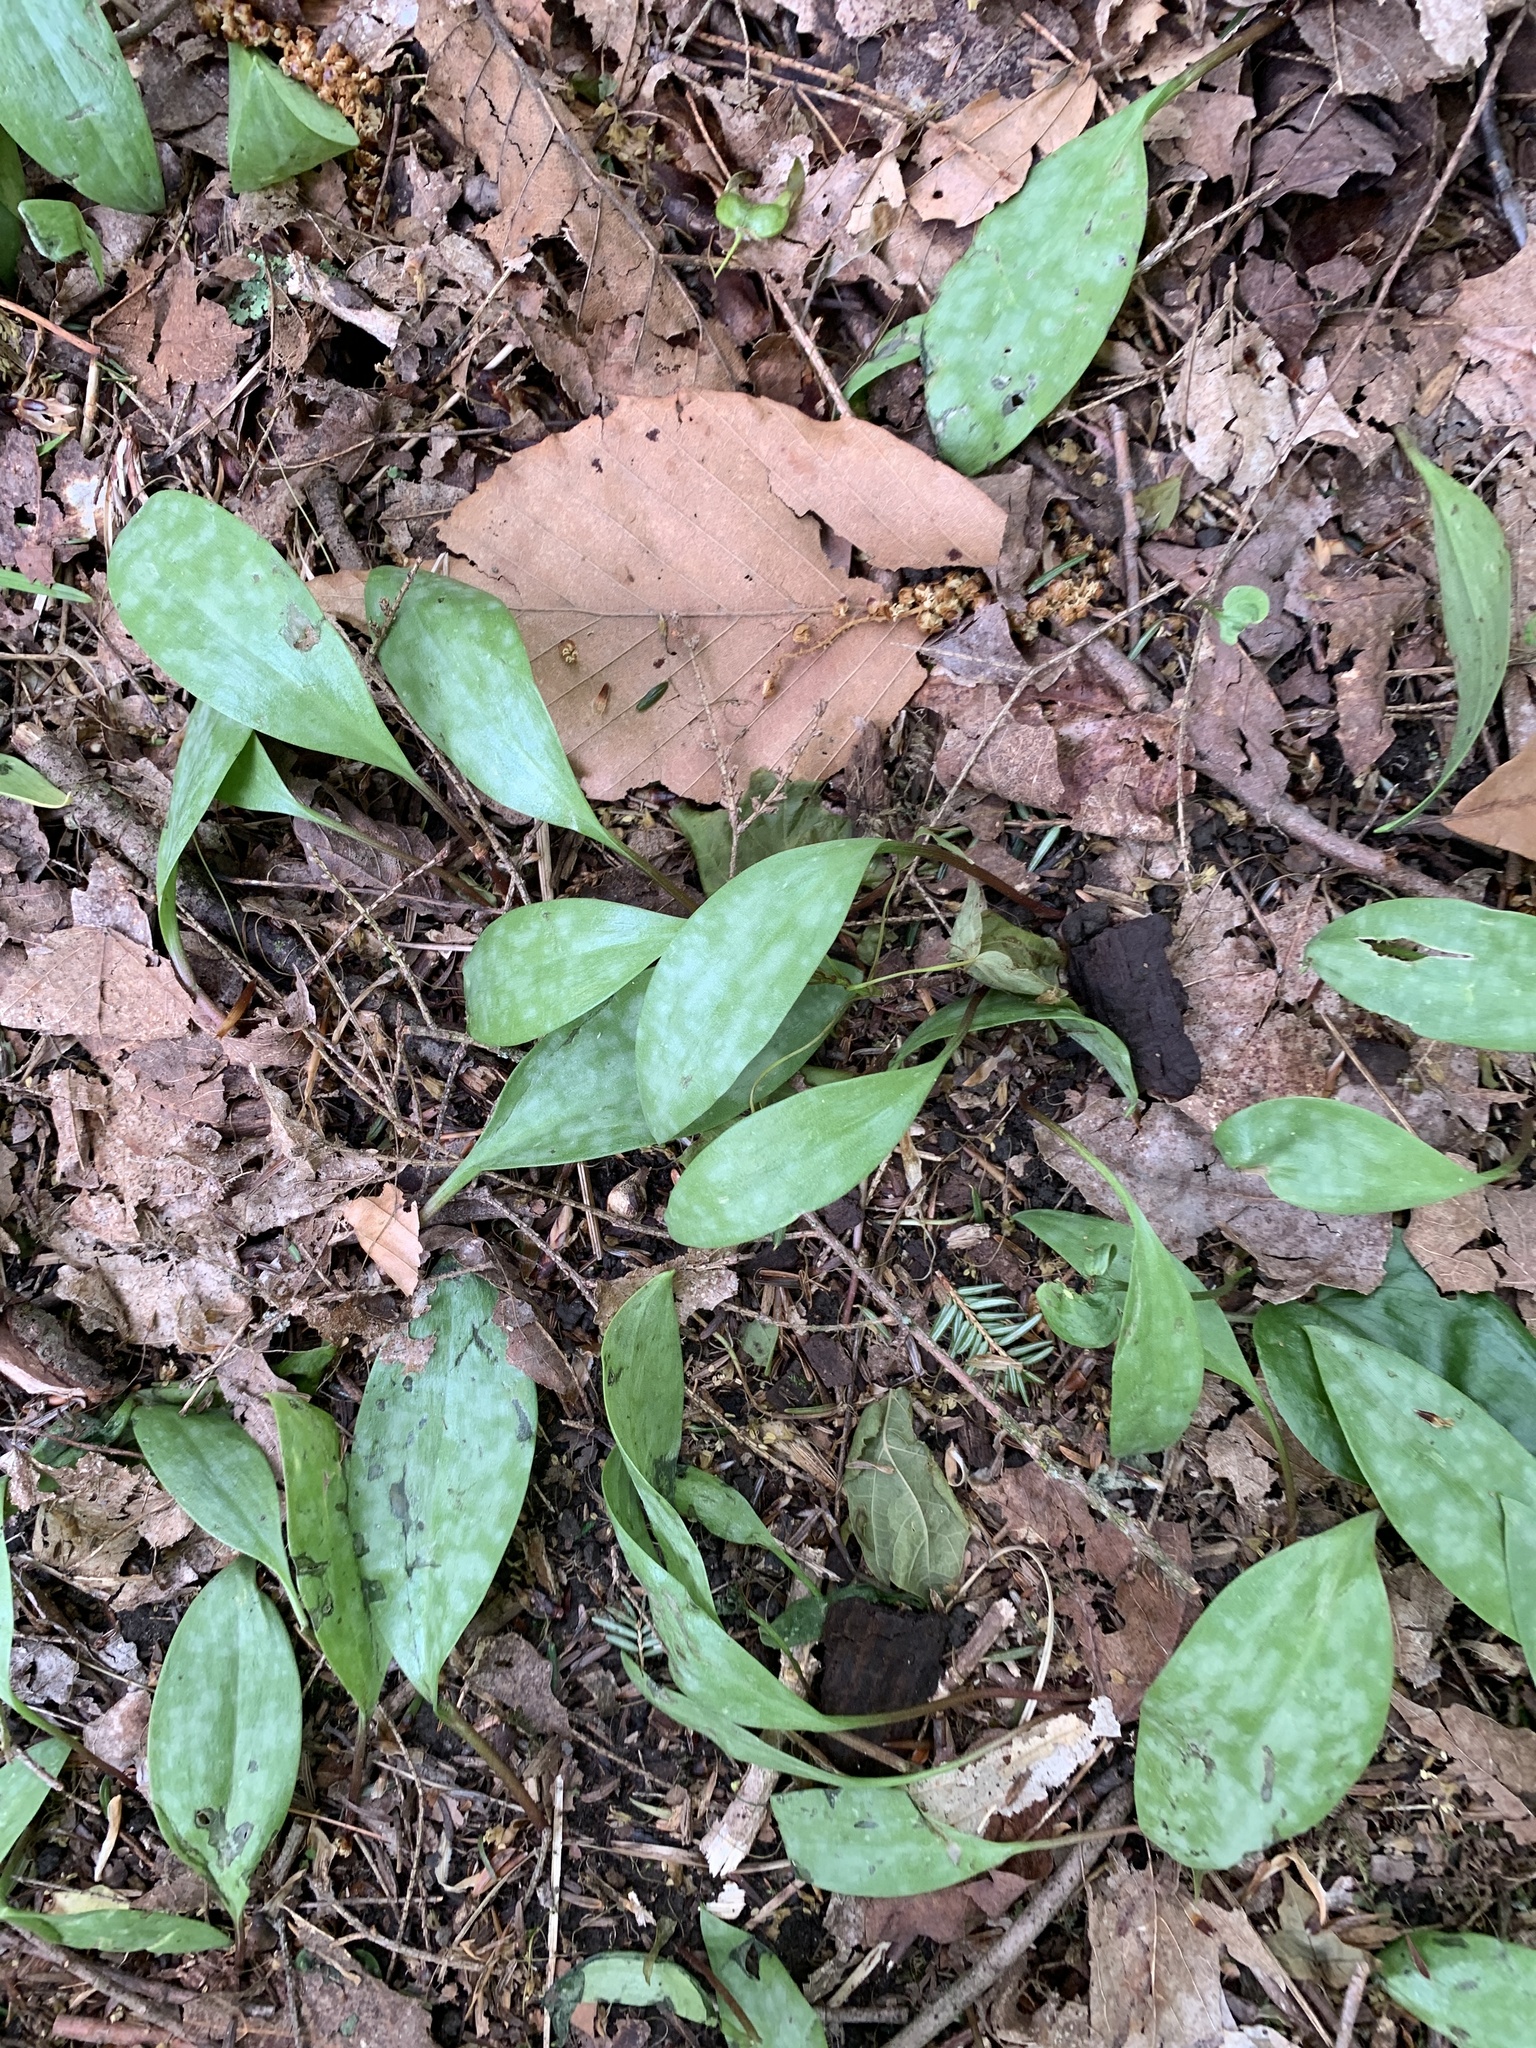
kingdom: Plantae
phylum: Tracheophyta
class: Liliopsida
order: Liliales
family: Liliaceae
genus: Erythronium
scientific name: Erythronium americanum
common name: Yellow adder's-tongue
